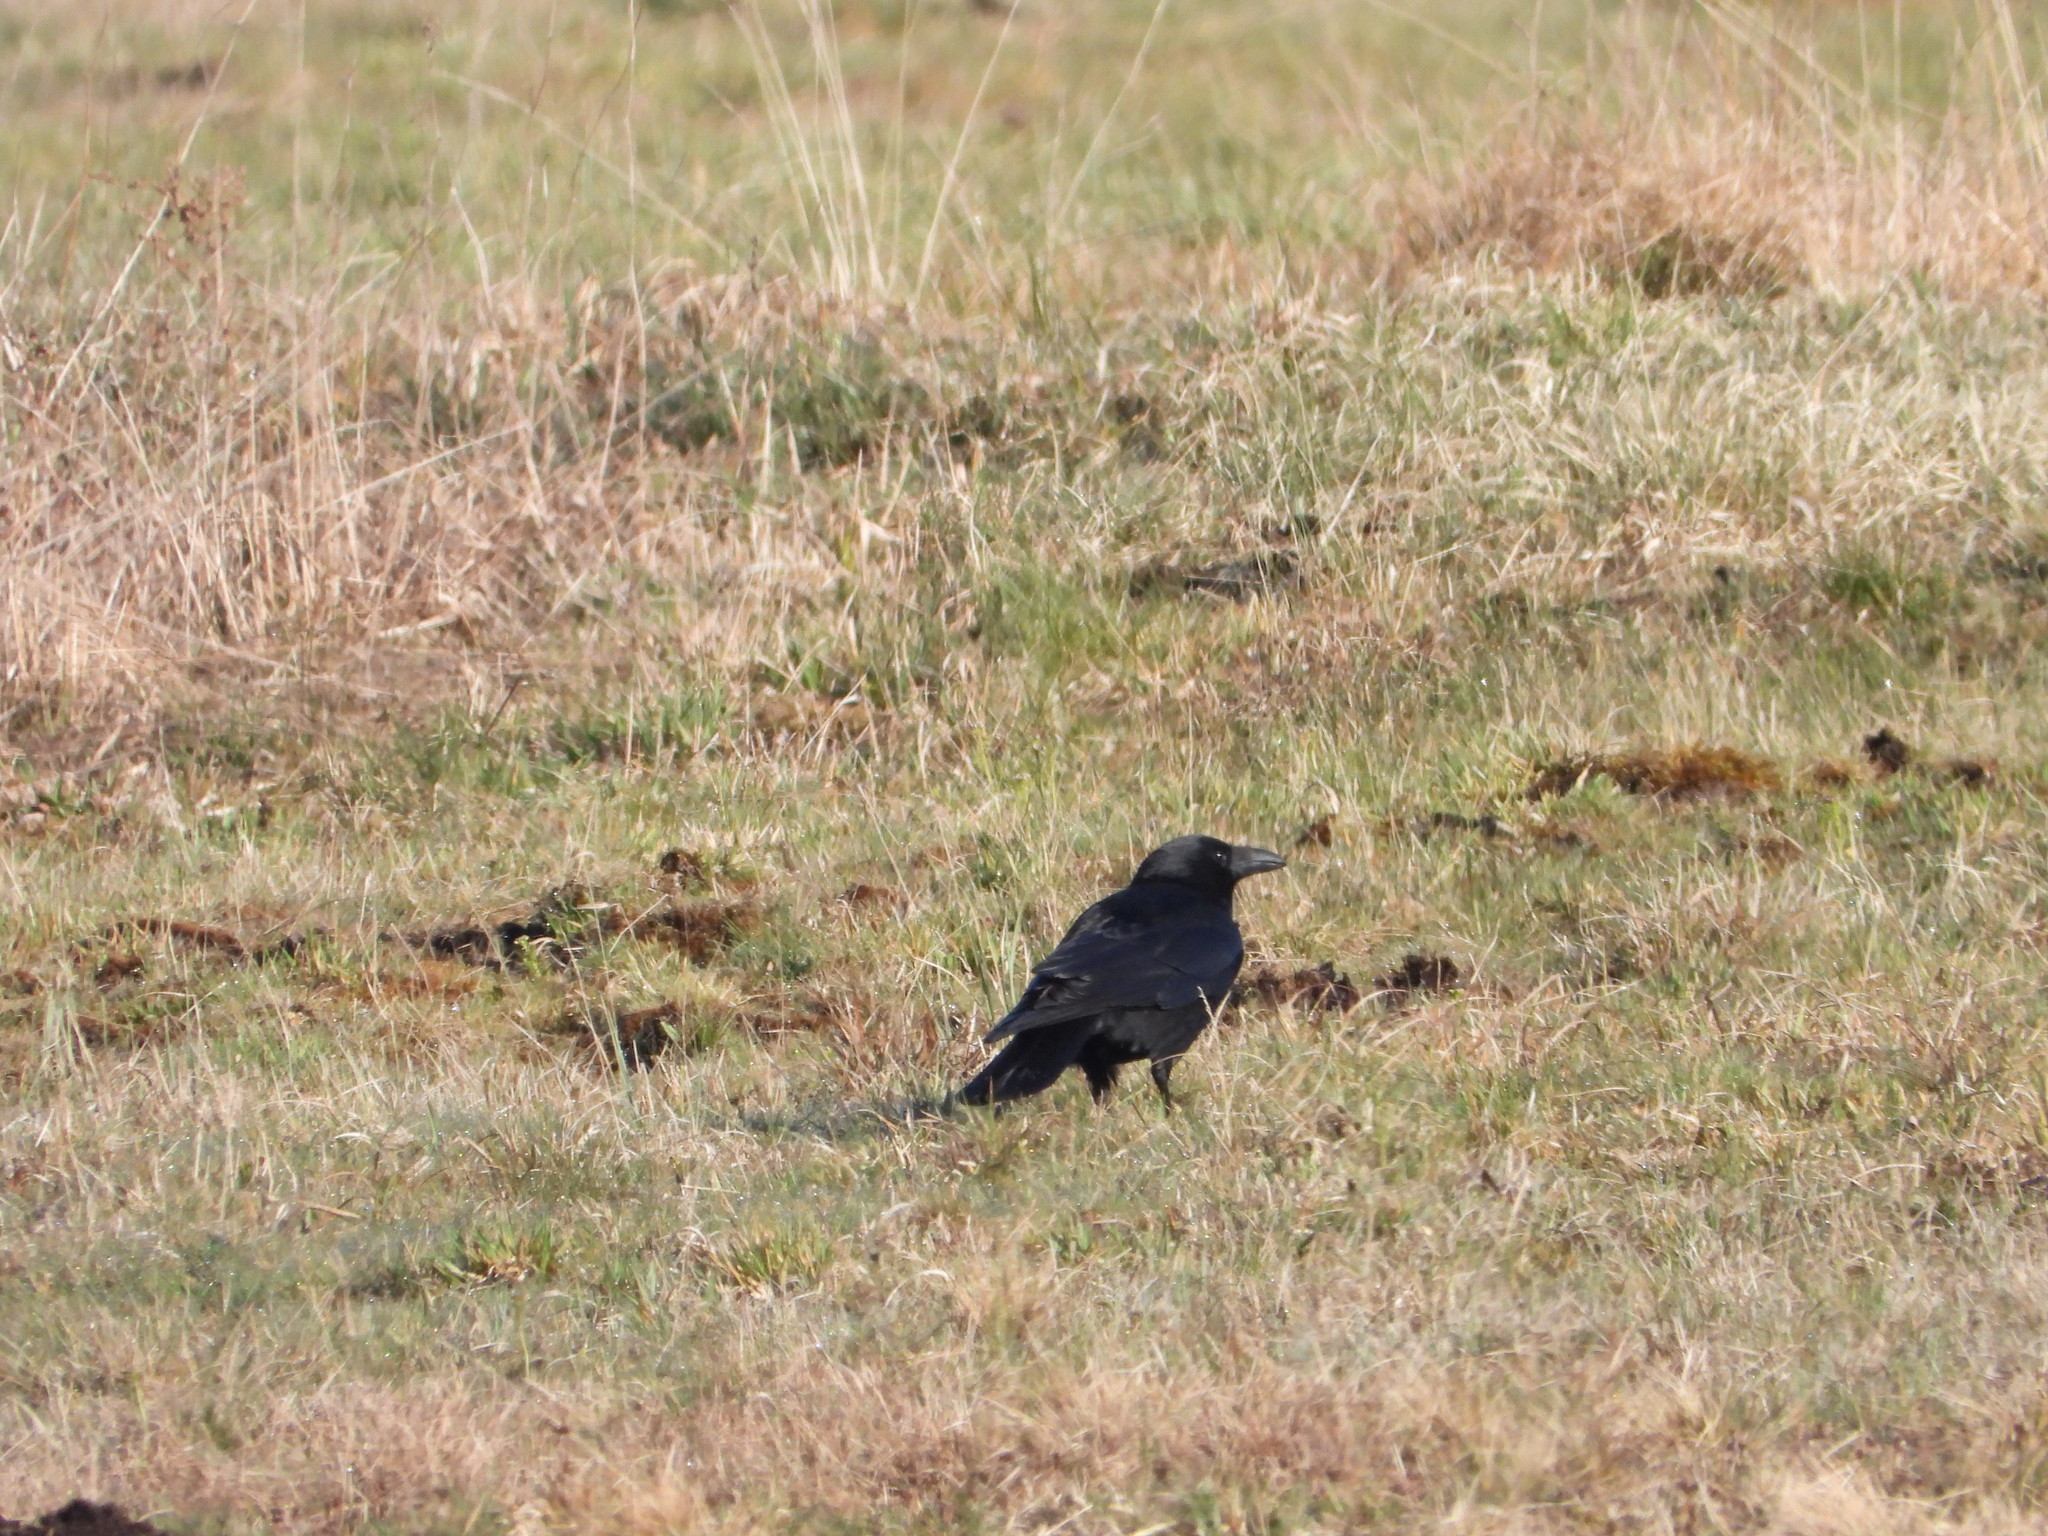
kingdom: Animalia
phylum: Chordata
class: Aves
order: Passeriformes
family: Corvidae
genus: Corvus
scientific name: Corvus corone
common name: Carrion crow
